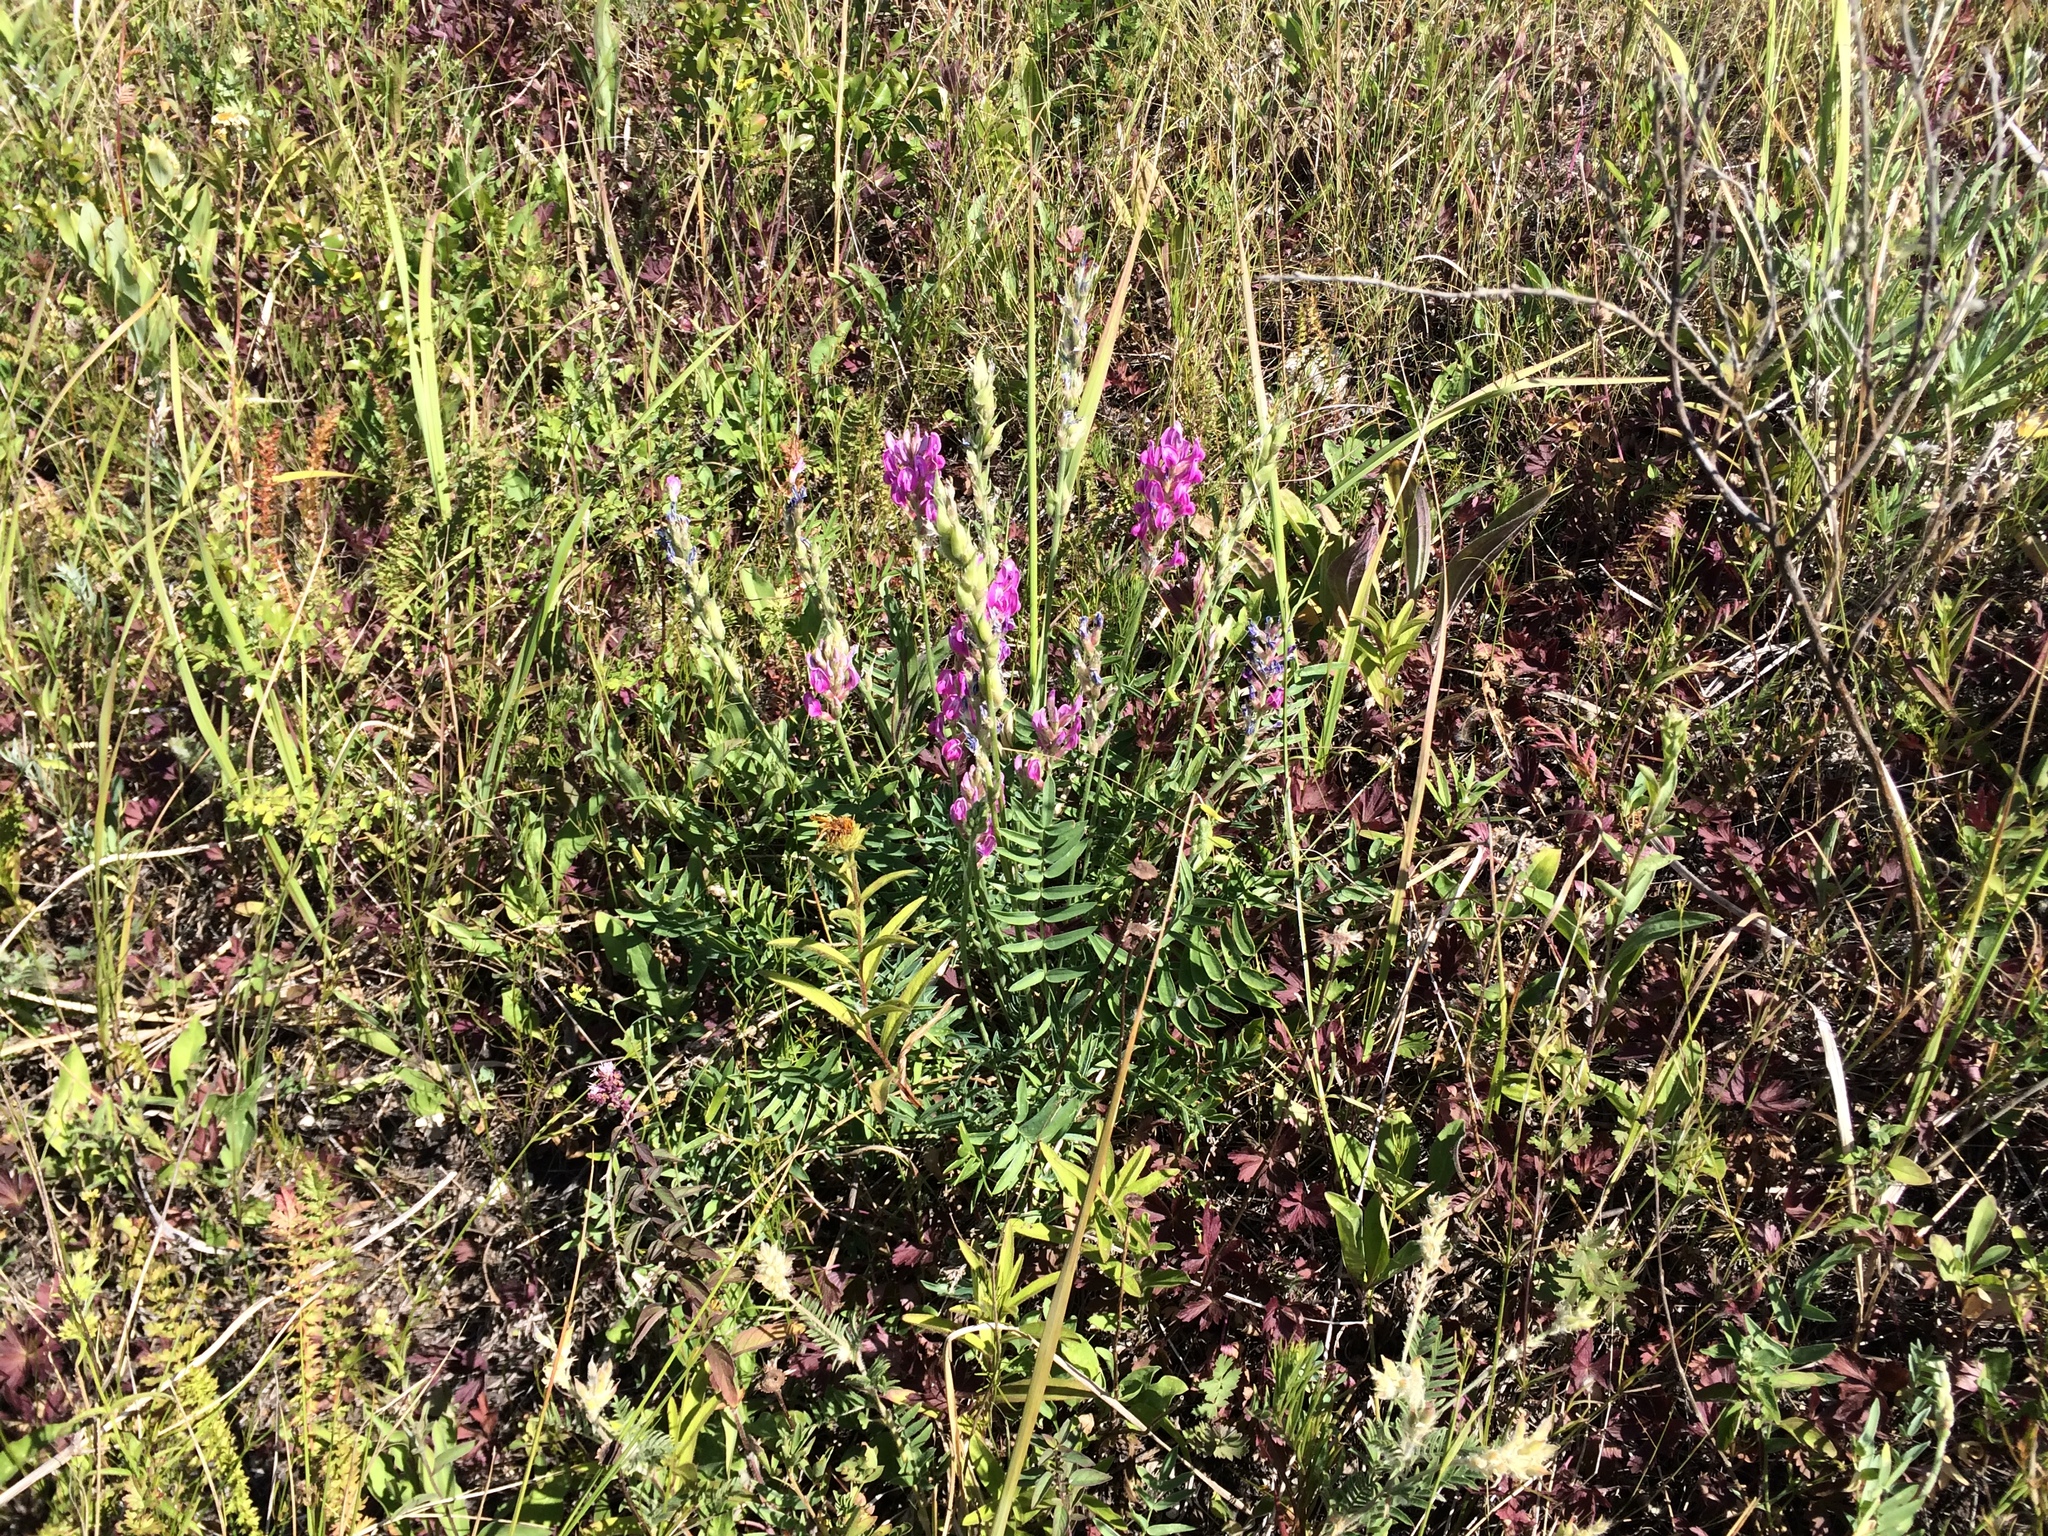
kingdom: Plantae
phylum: Tracheophyta
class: Magnoliopsida
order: Fabales
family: Fabaceae
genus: Oxytropis
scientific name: Oxytropis uralensis
